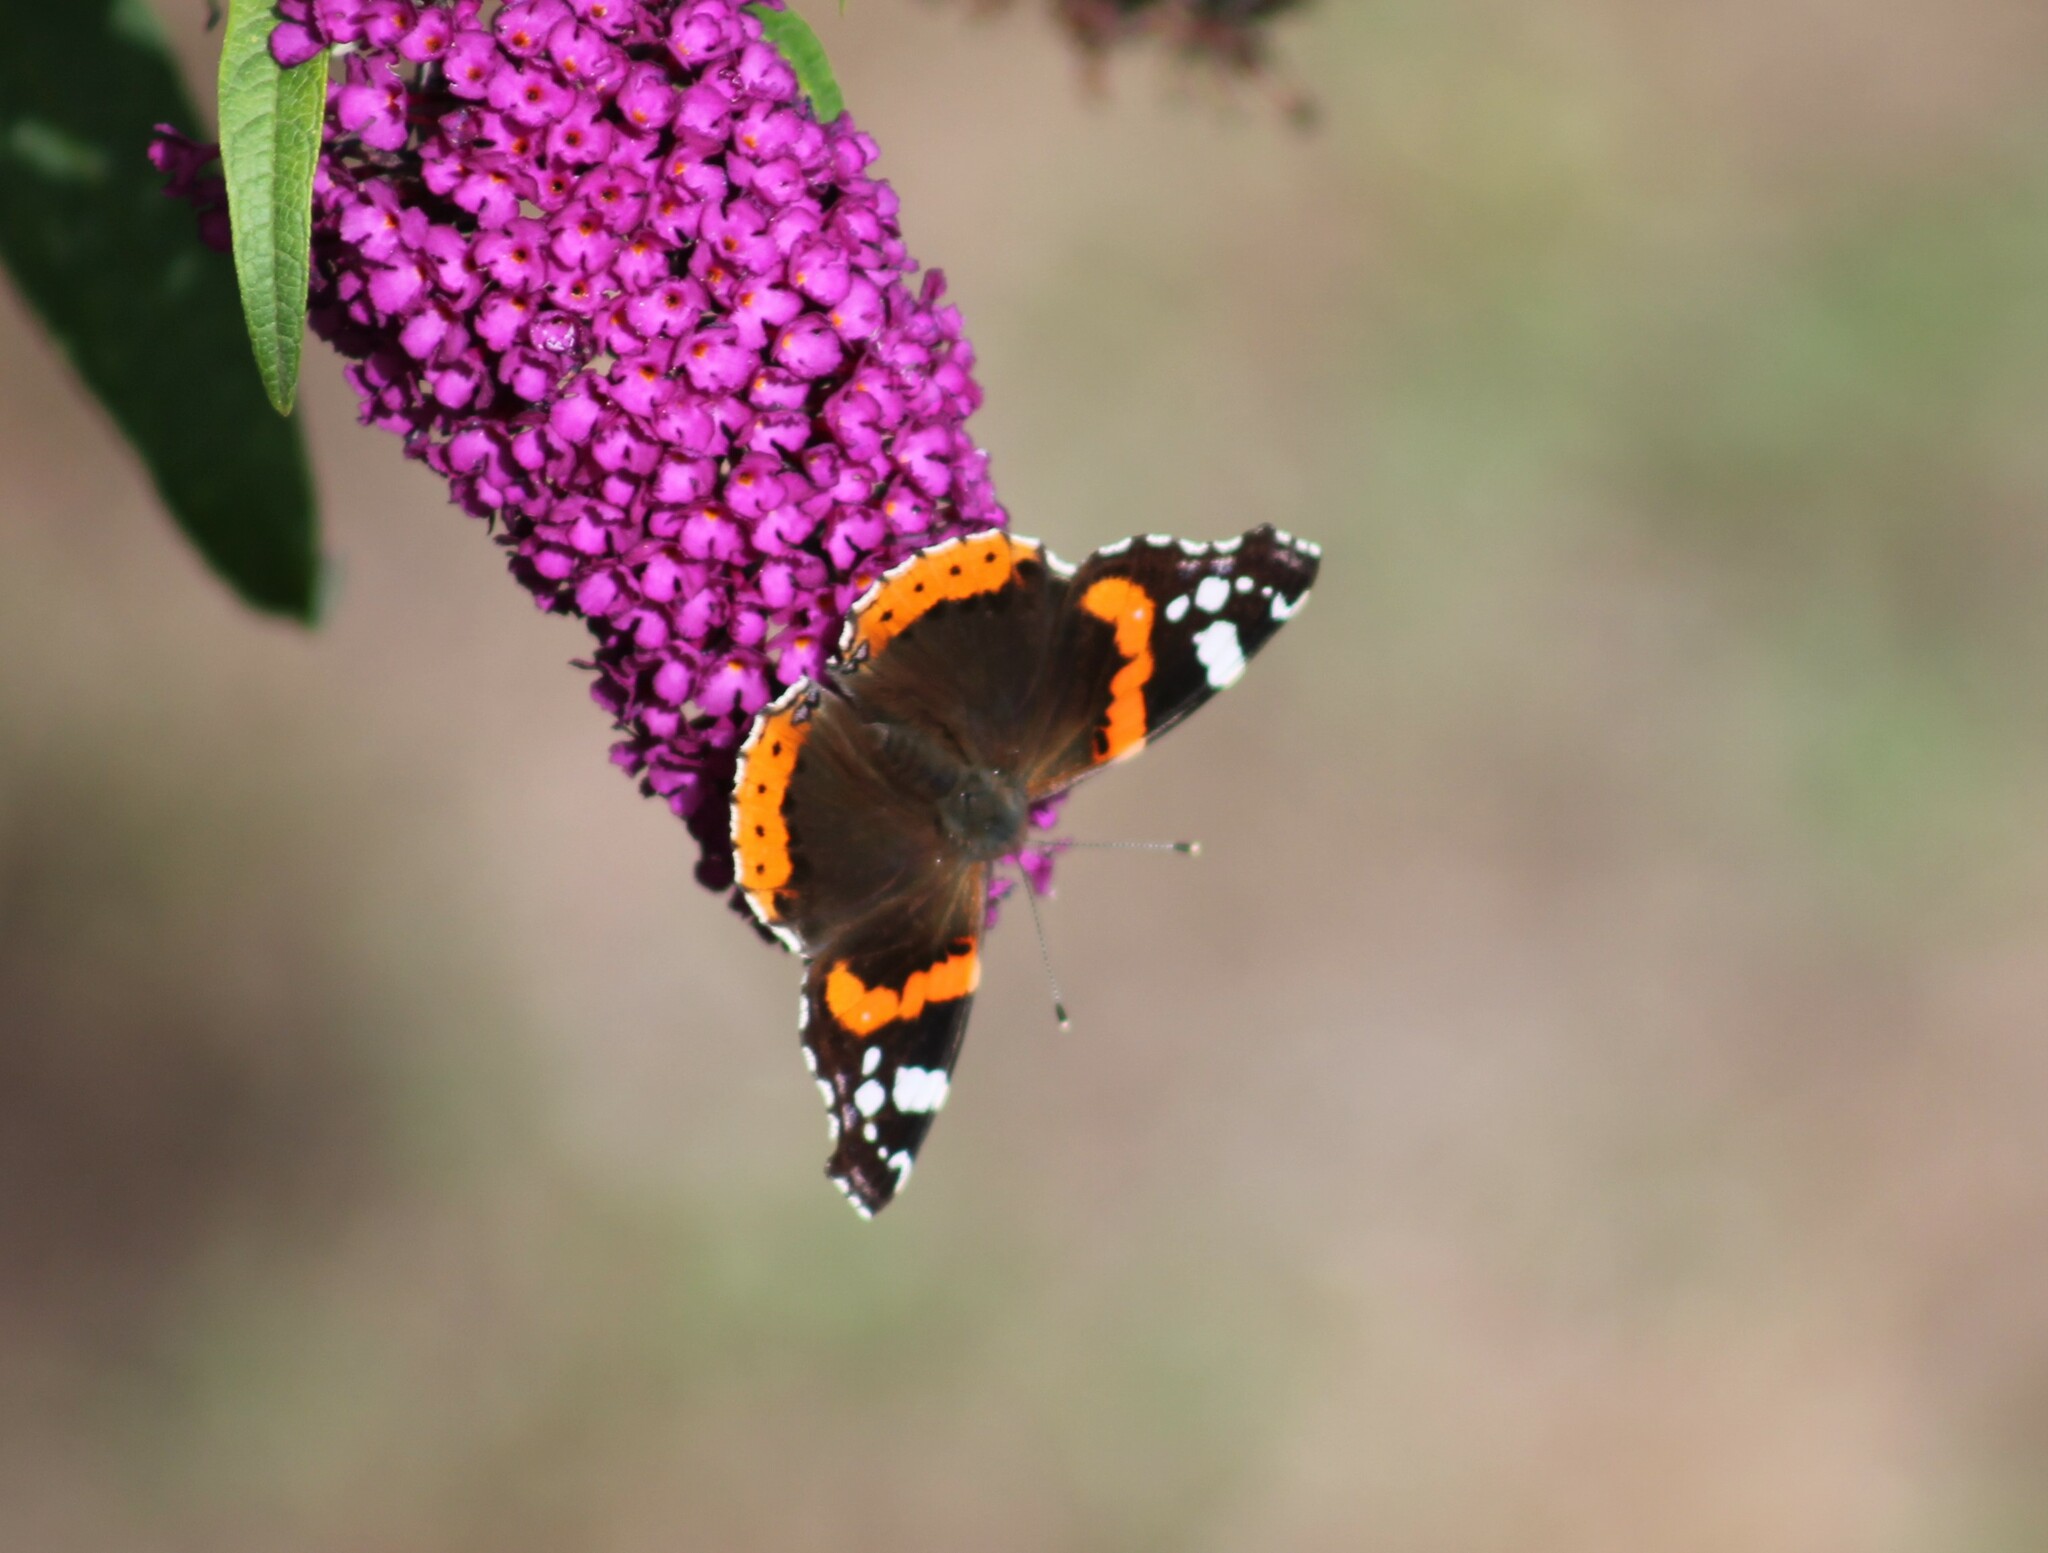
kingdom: Animalia
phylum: Arthropoda
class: Insecta
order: Lepidoptera
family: Nymphalidae
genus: Vanessa
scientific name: Vanessa atalanta
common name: Red admiral
